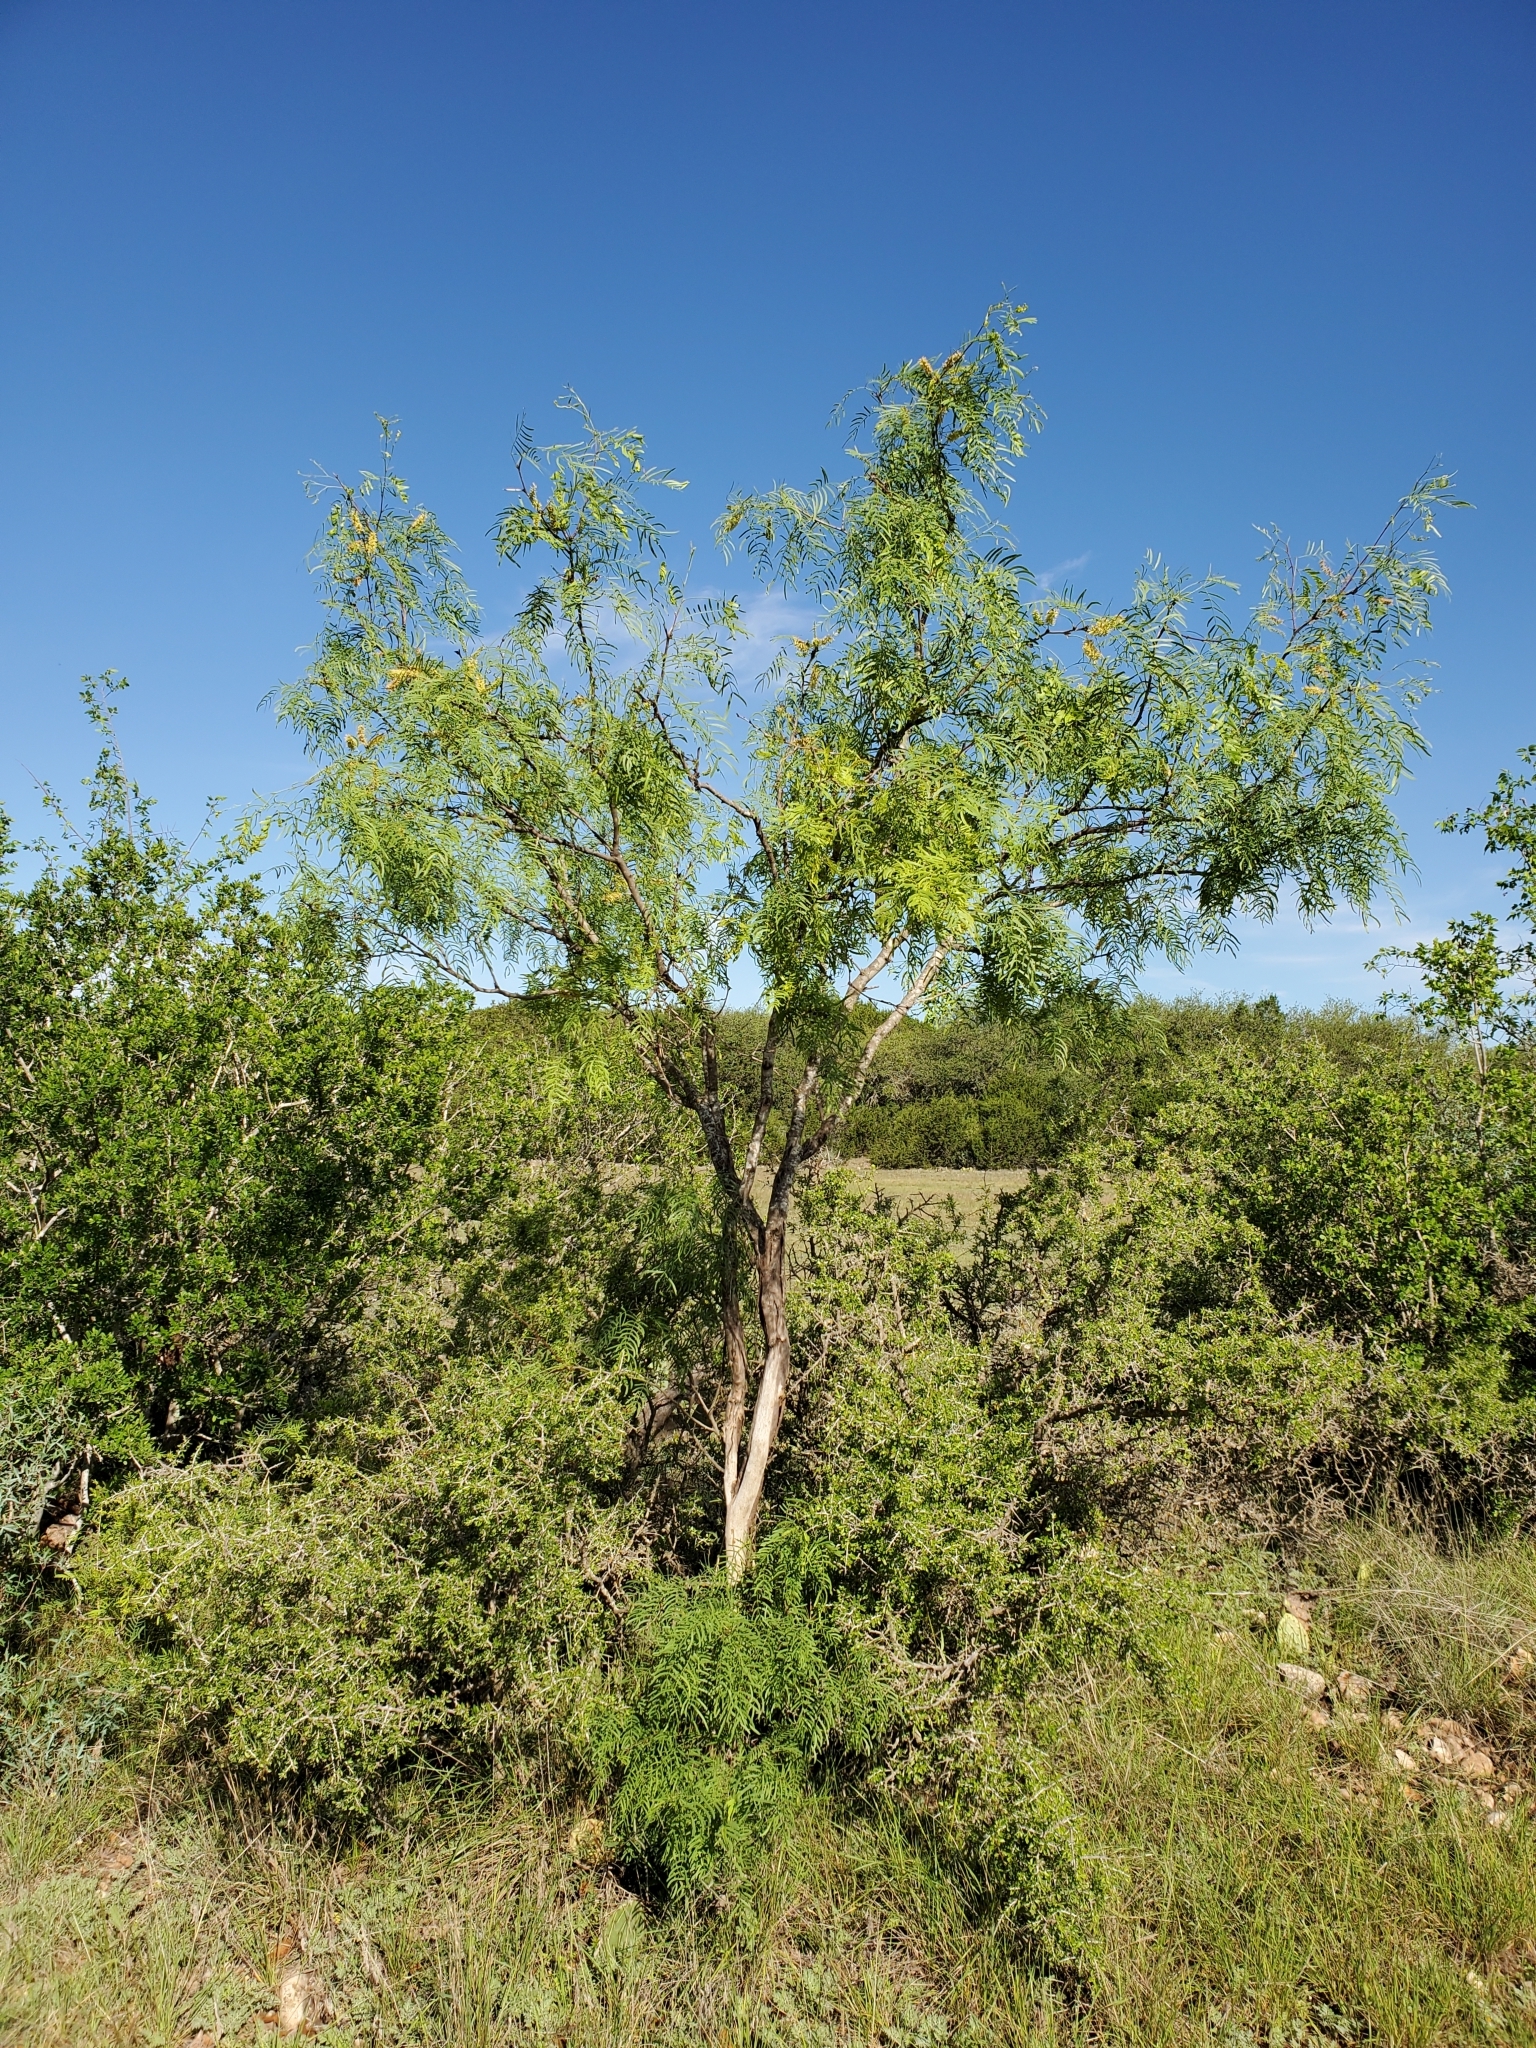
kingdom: Plantae
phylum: Tracheophyta
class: Magnoliopsida
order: Fabales
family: Fabaceae
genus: Prosopis
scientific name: Prosopis glandulosa
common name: Honey mesquite
